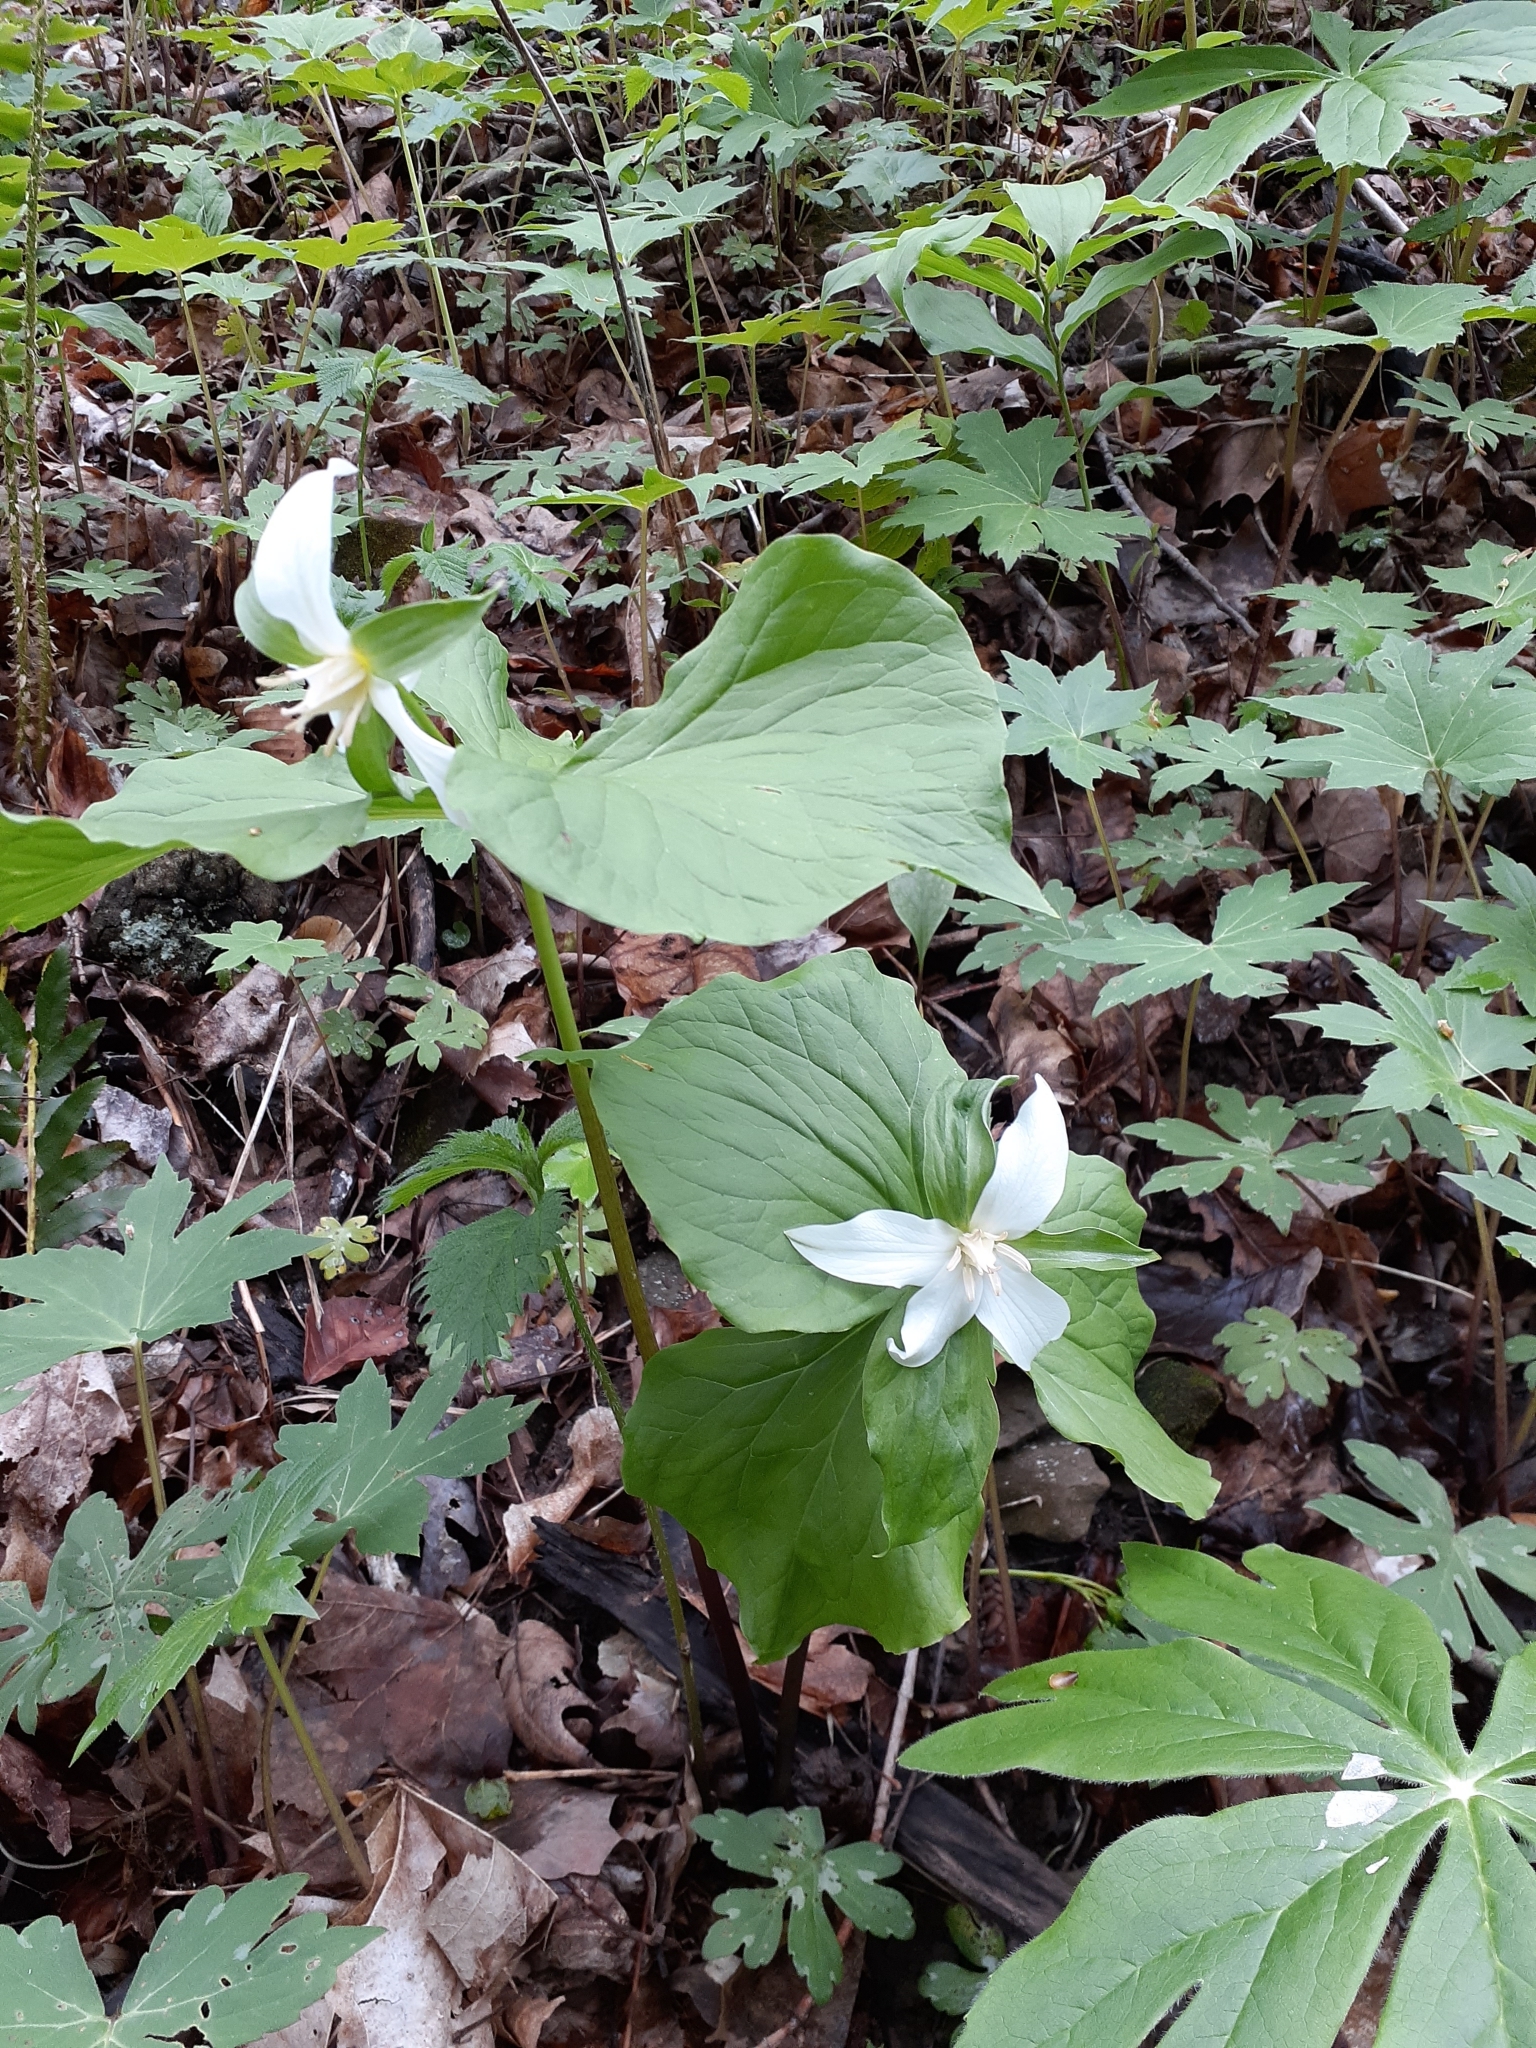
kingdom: Plantae
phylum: Tracheophyta
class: Liliopsida
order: Liliales
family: Melanthiaceae
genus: Trillium
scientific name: Trillium flexipes
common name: Drooping trillium
